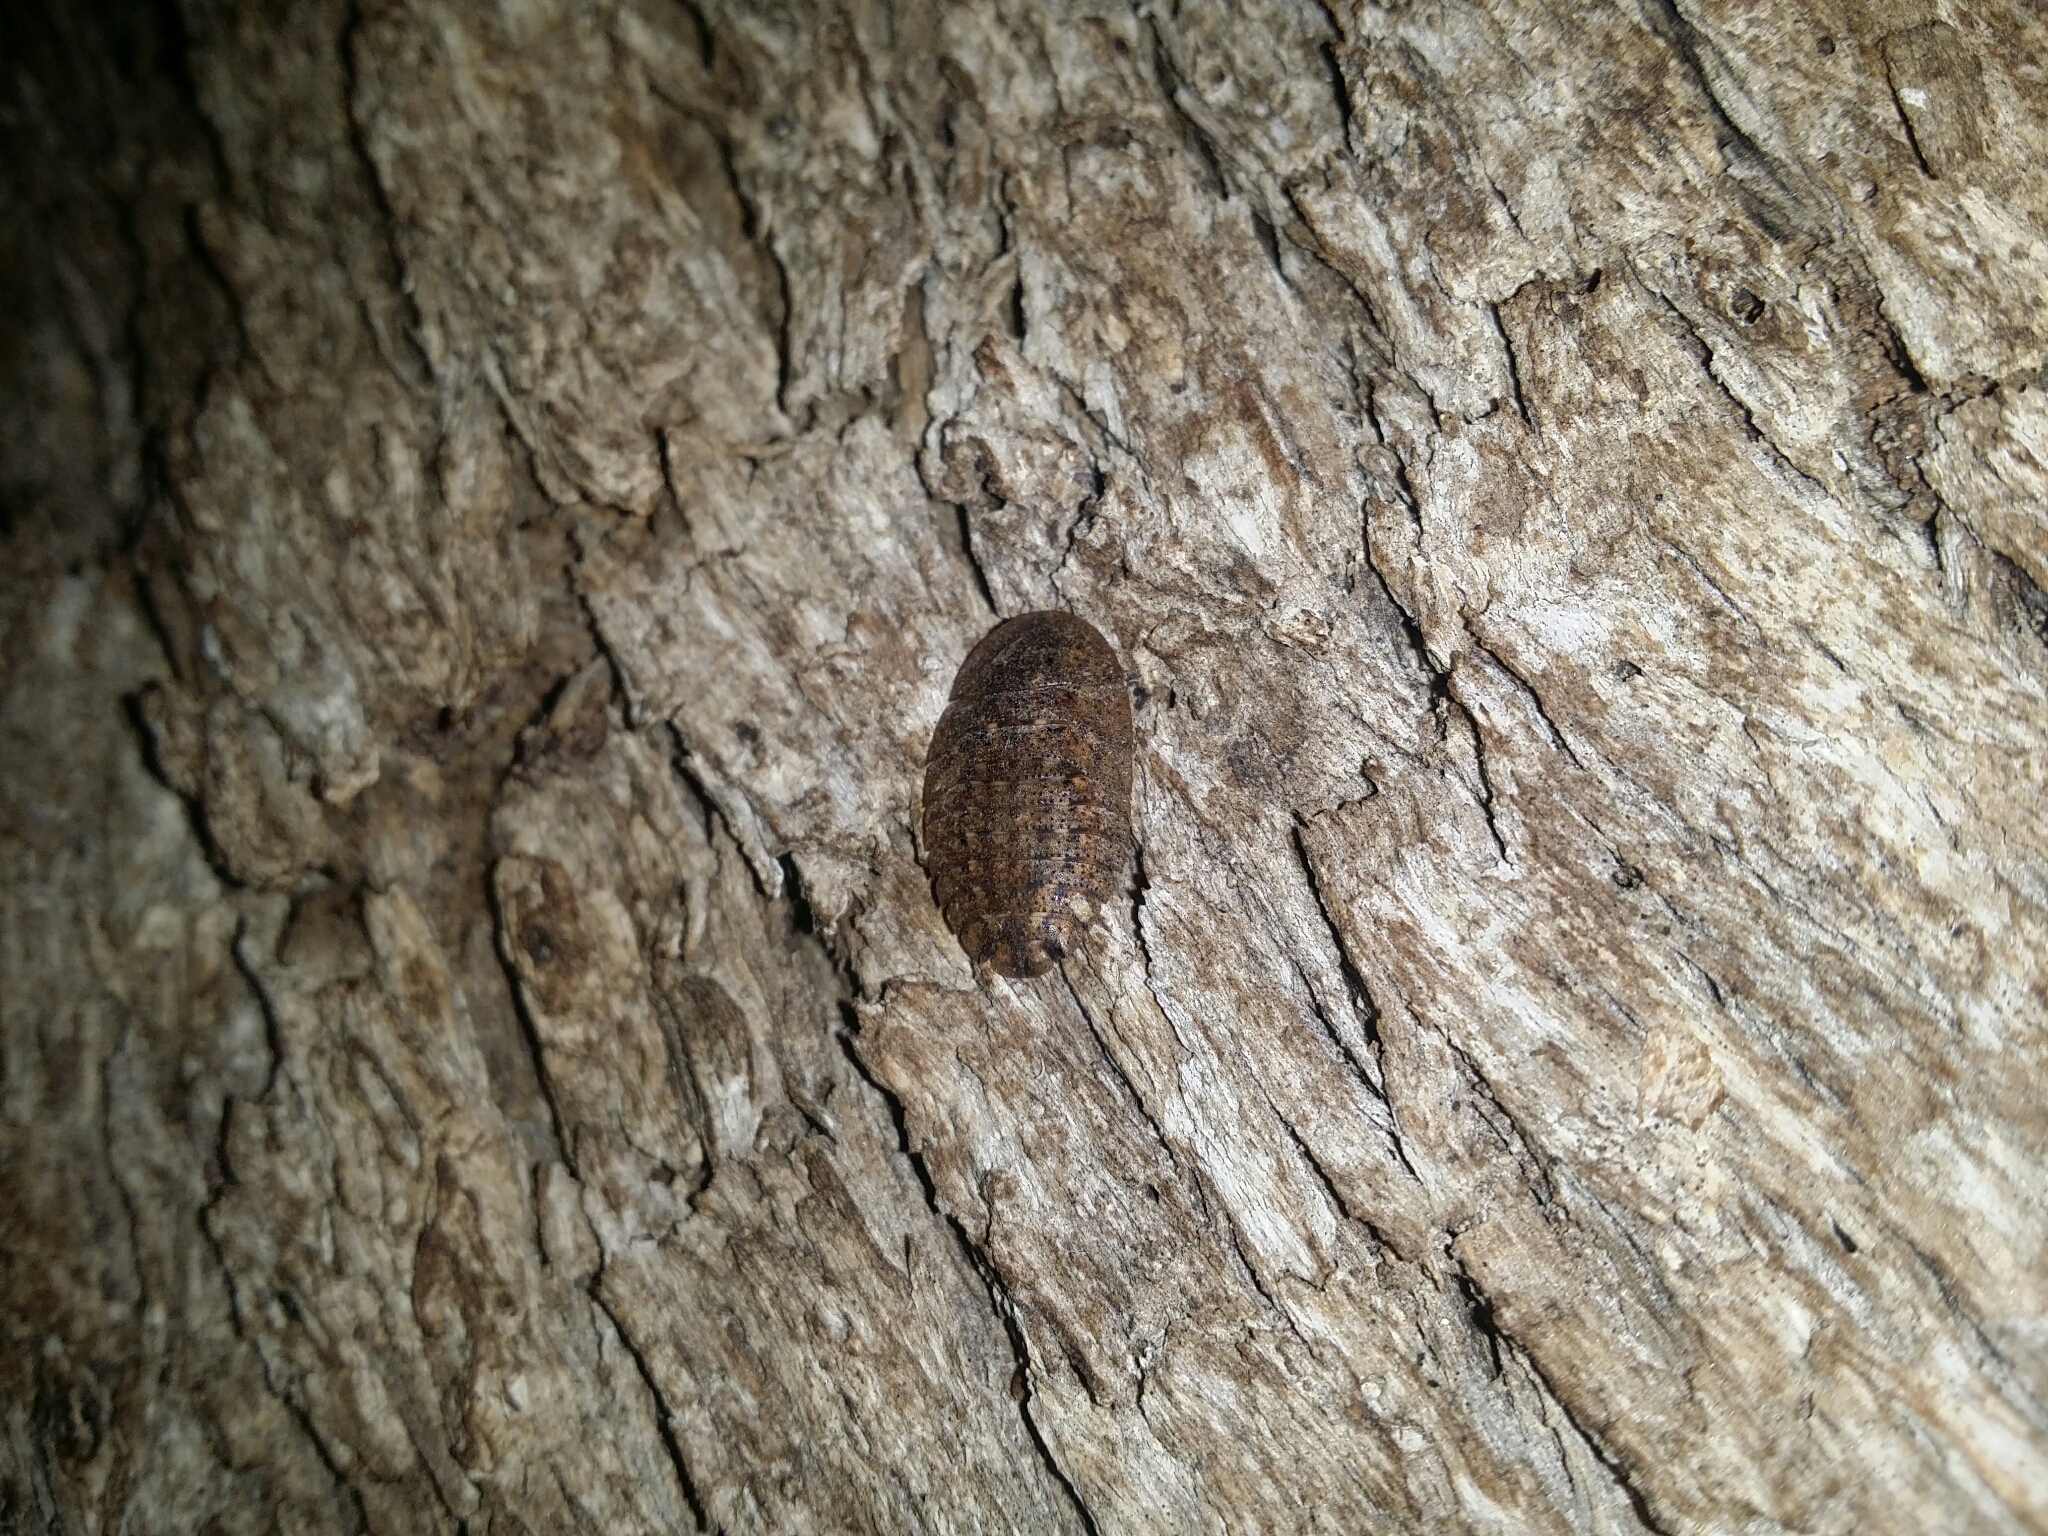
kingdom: Animalia
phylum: Arthropoda
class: Insecta
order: Blattodea
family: Blaberidae
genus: Laxta
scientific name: Laxta rieki
